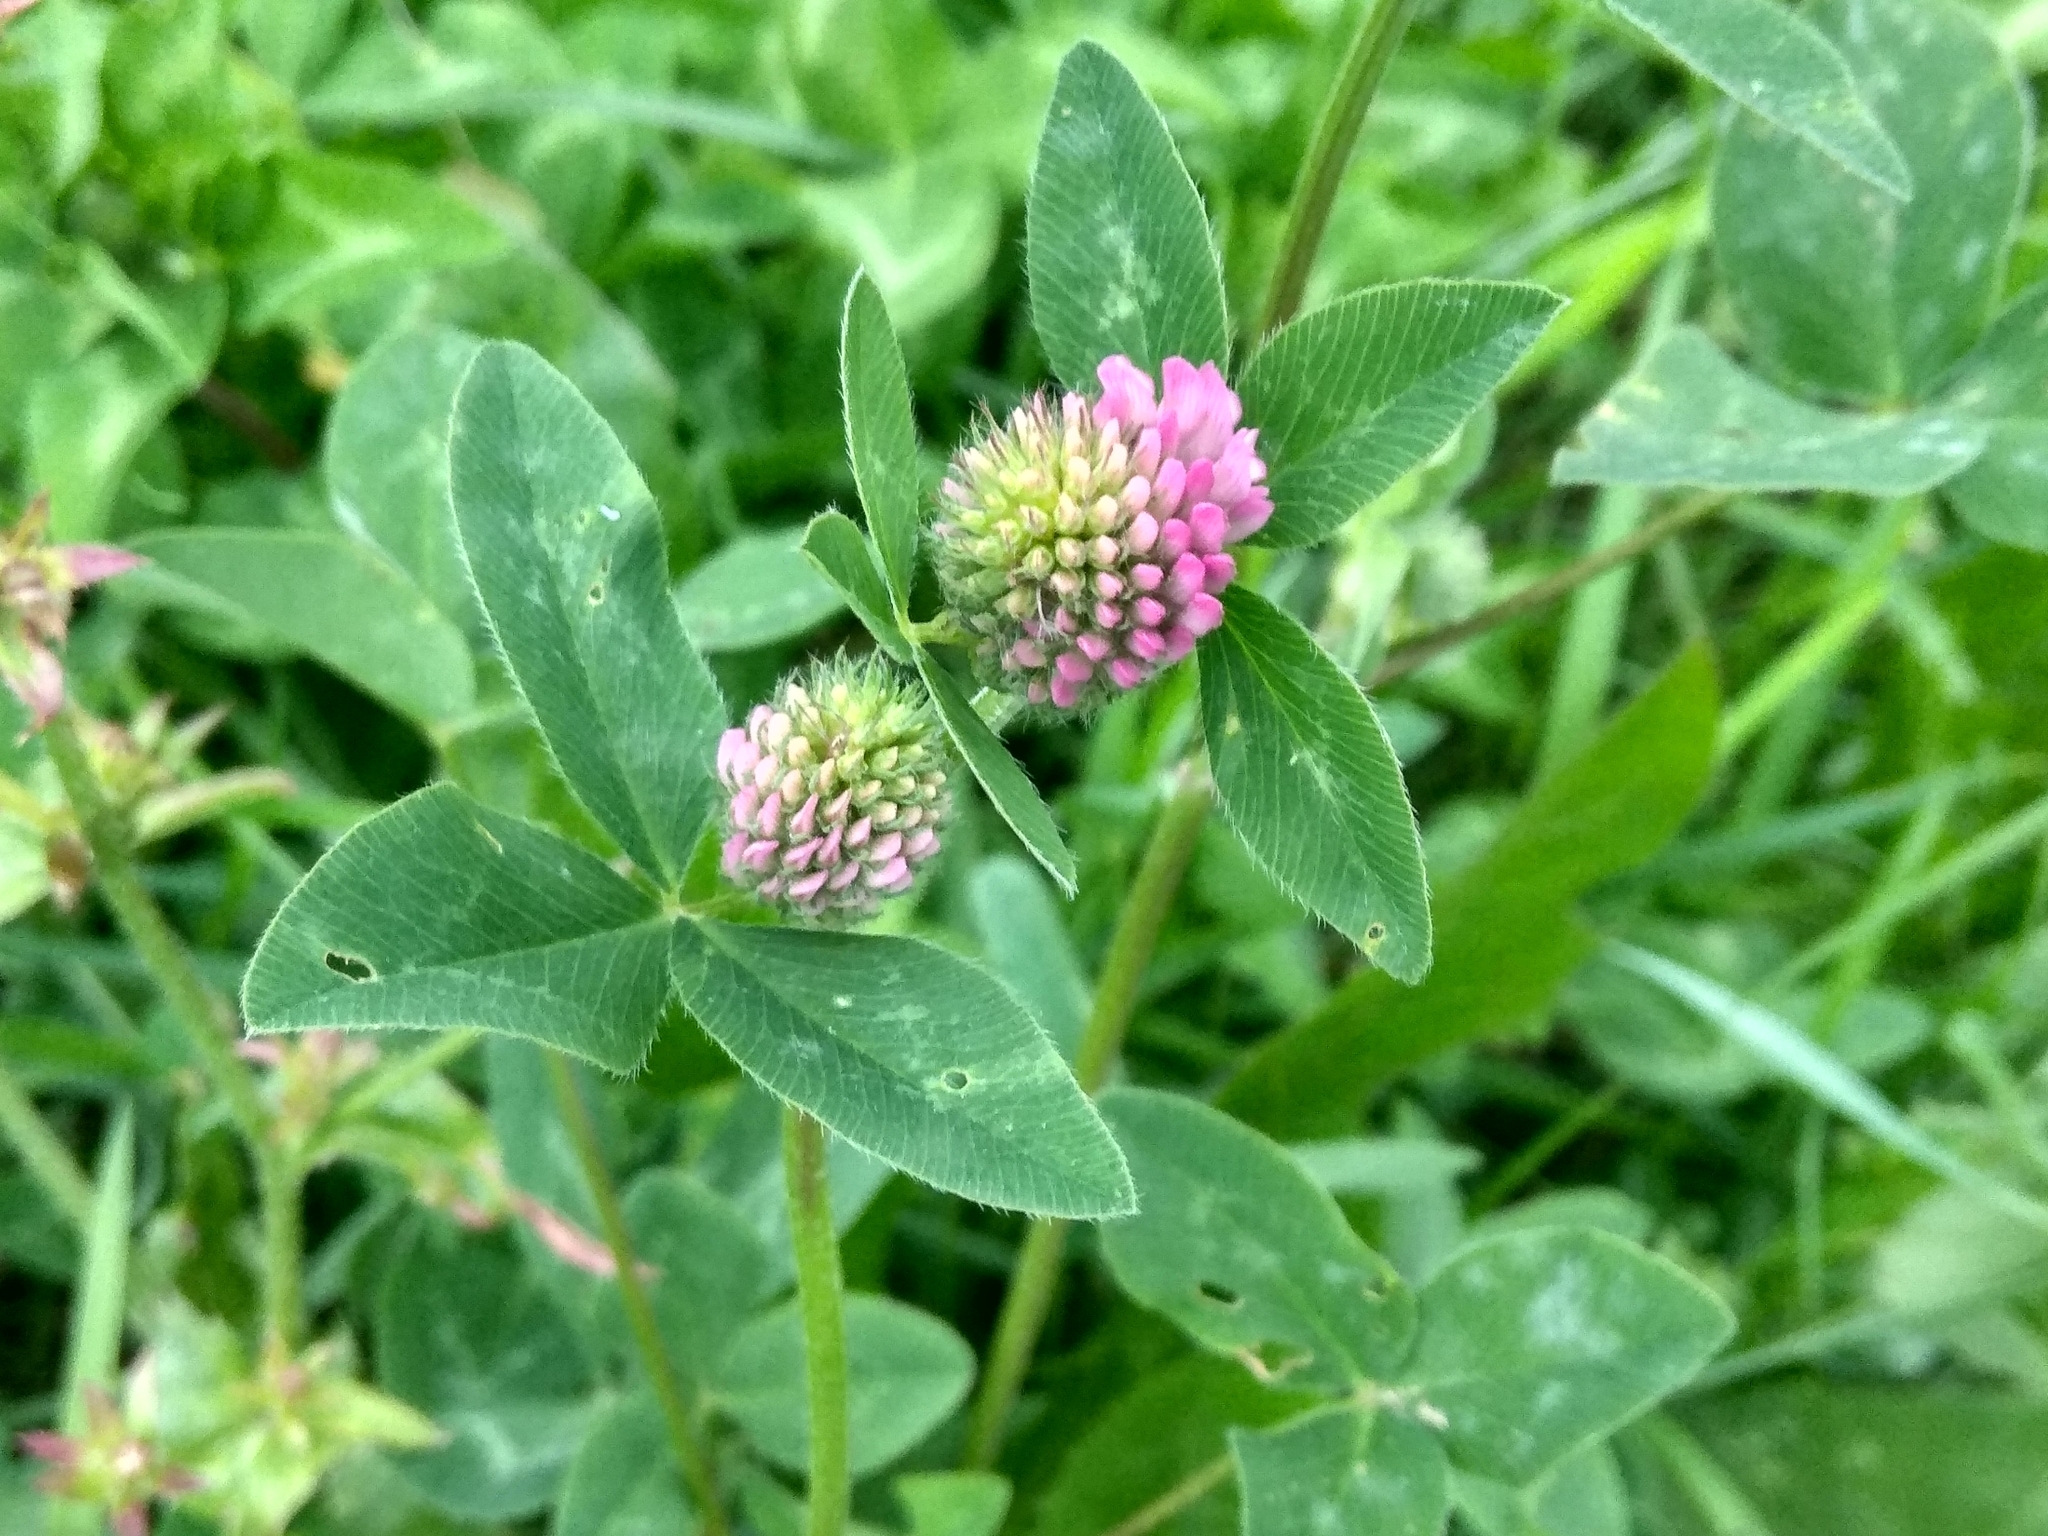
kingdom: Plantae
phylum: Tracheophyta
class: Magnoliopsida
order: Fabales
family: Fabaceae
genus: Trifolium
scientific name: Trifolium pratense
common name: Red clover
